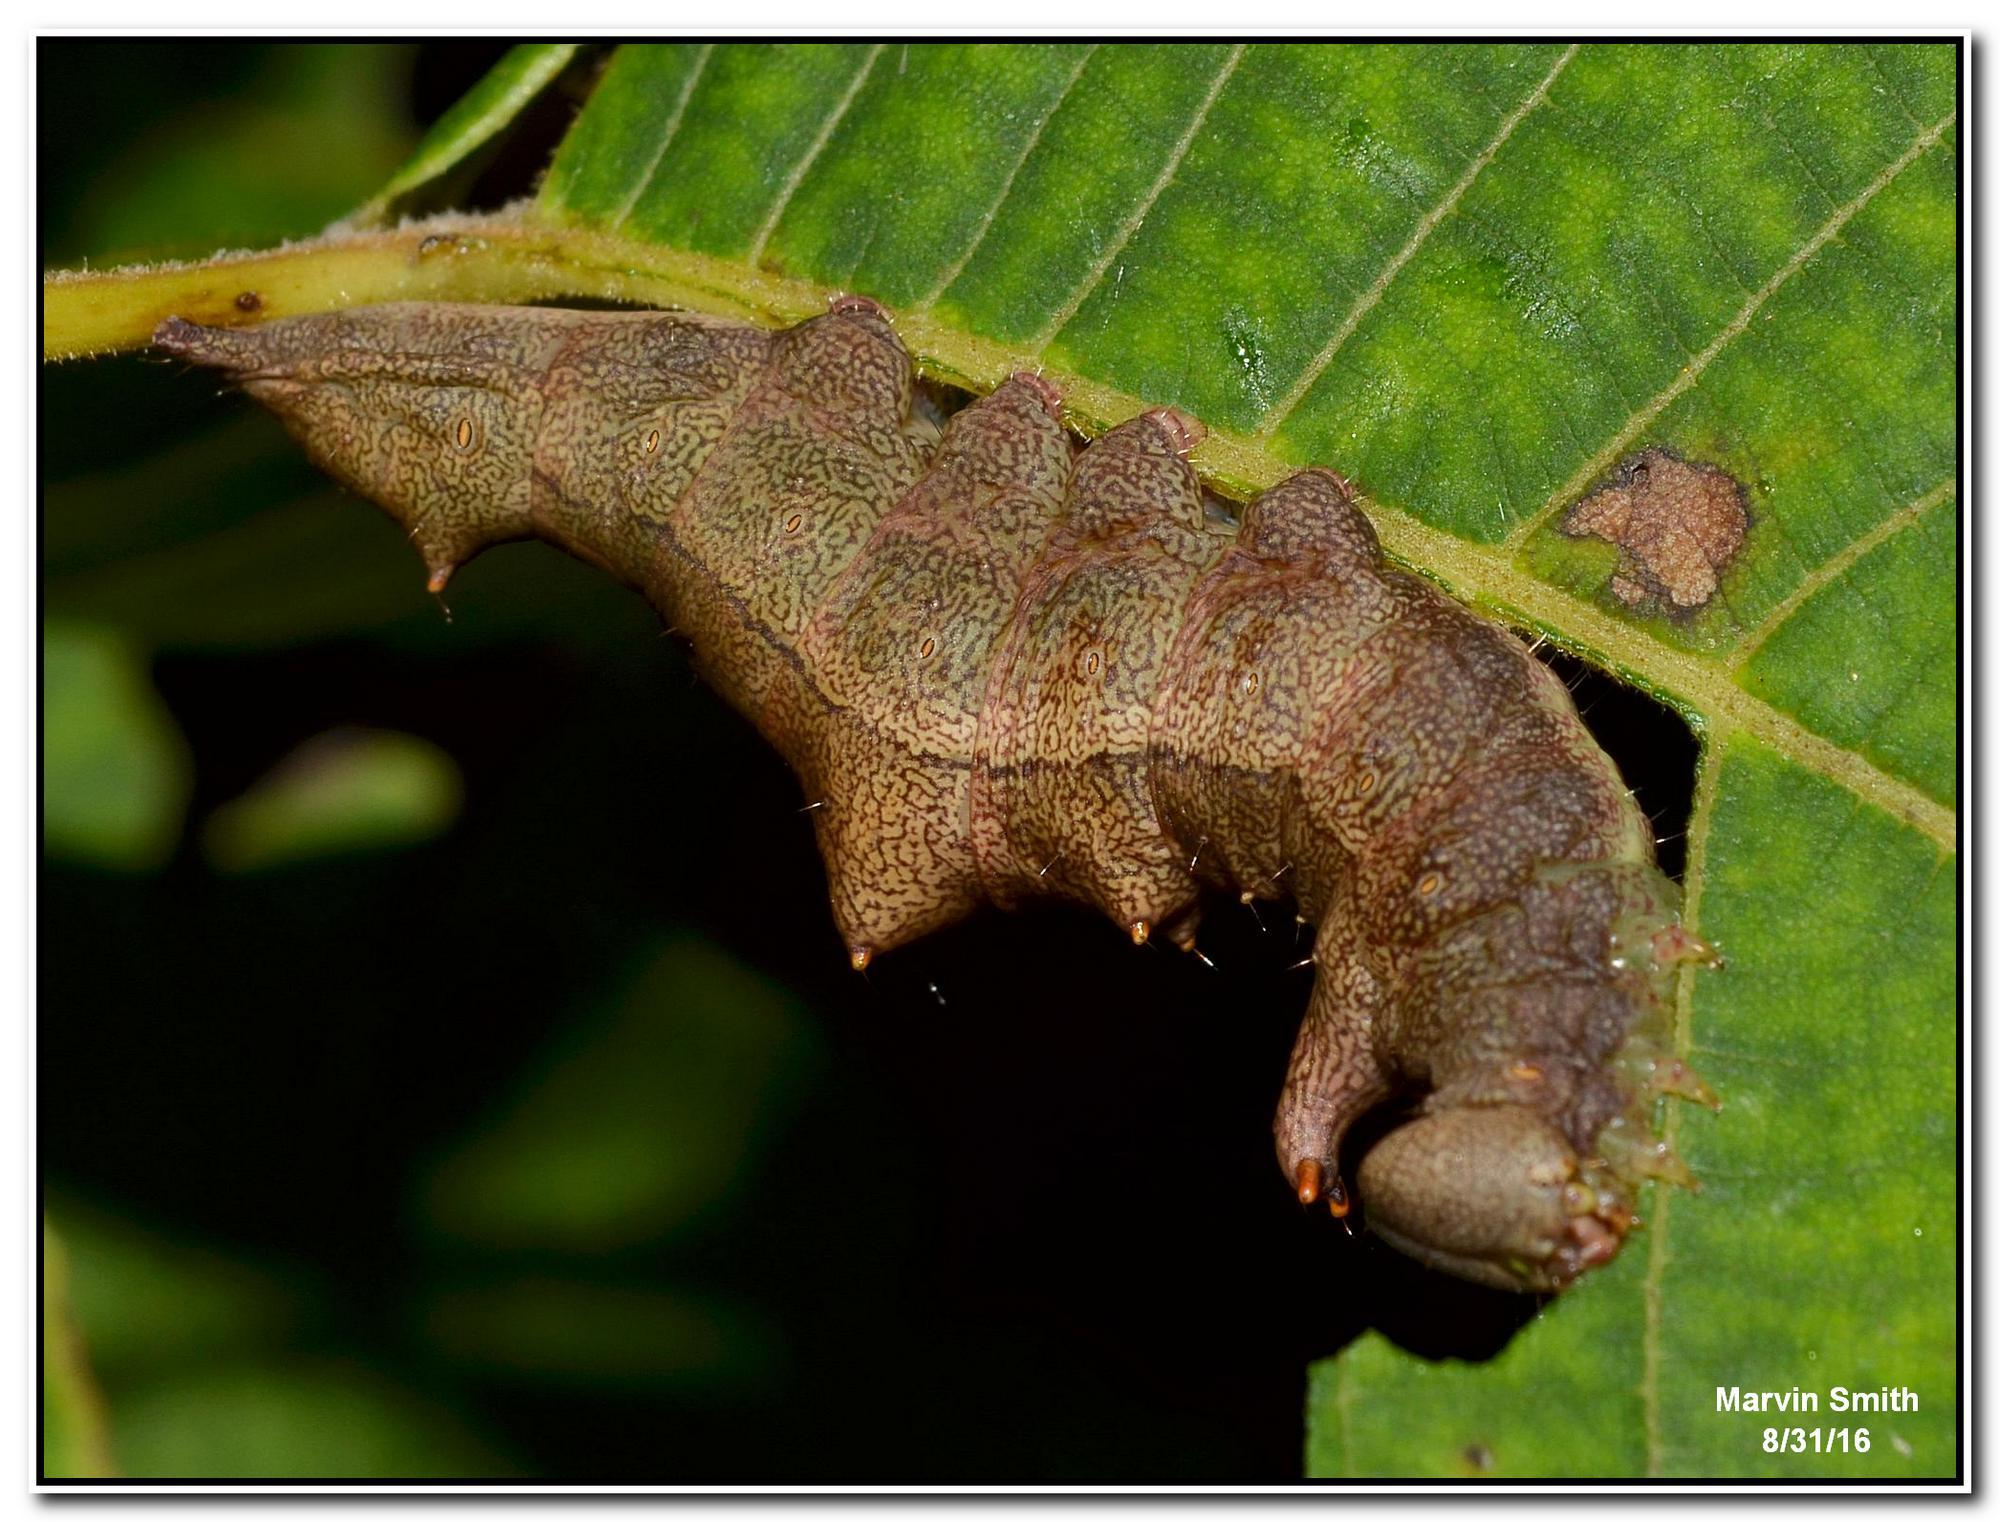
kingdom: Animalia
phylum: Arthropoda
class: Insecta
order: Lepidoptera
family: Notodontidae
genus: Schizura
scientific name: Schizura
